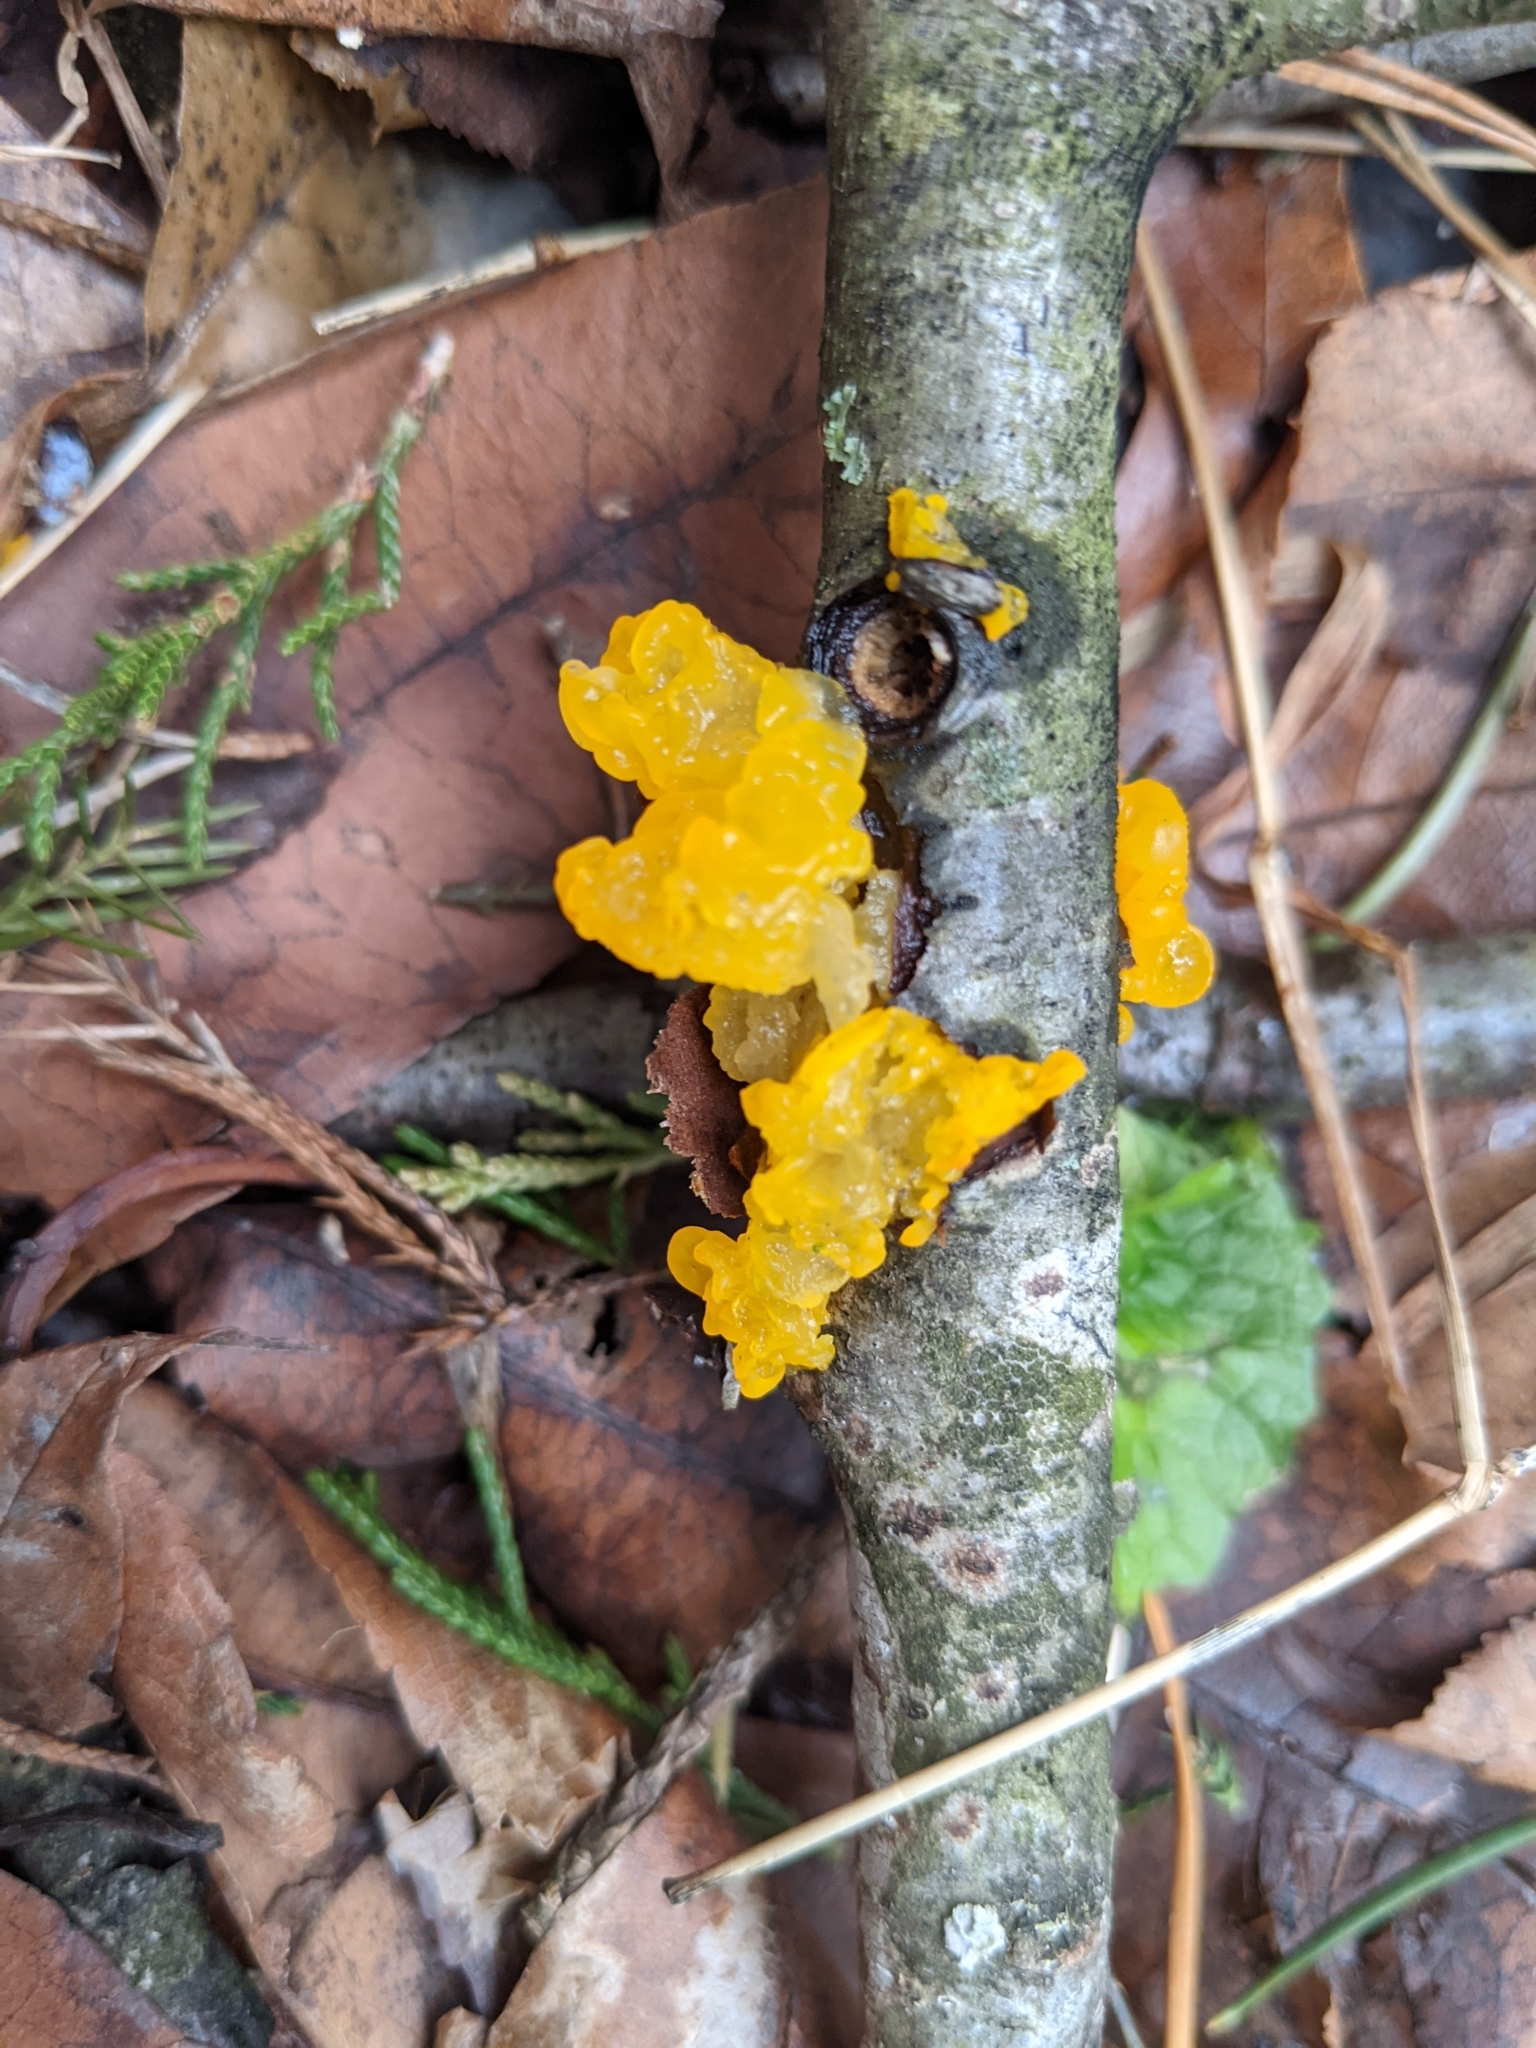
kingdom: Fungi
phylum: Basidiomycota
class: Tremellomycetes
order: Tremellales
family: Tremellaceae
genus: Tremella
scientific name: Tremella mesenterica
